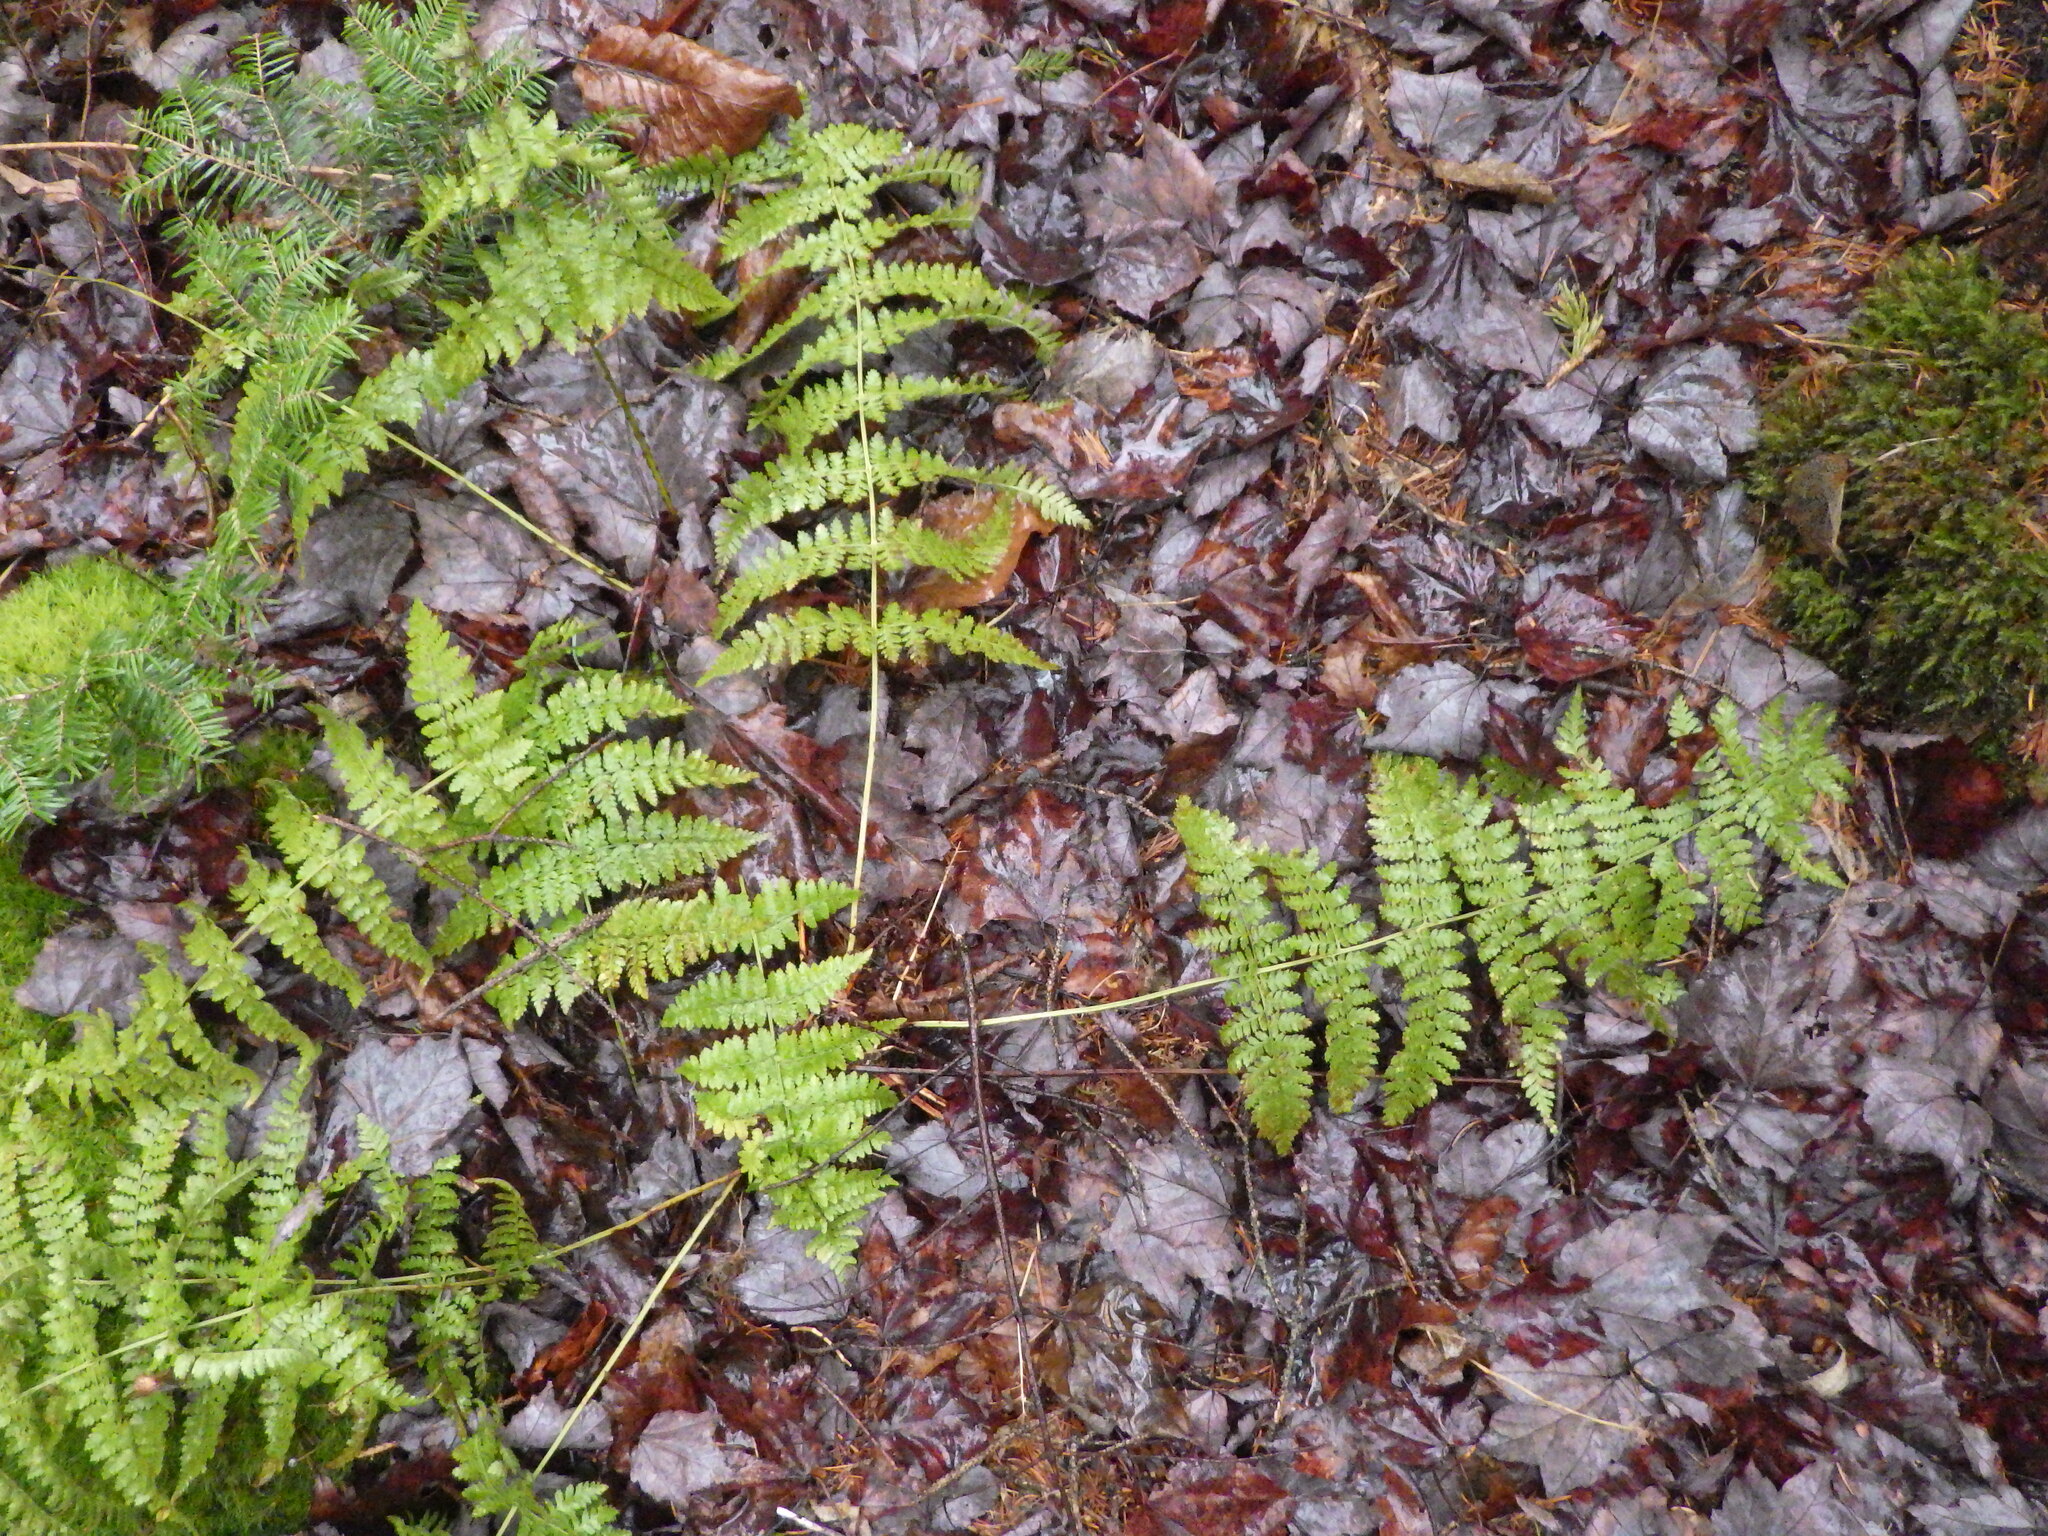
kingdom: Plantae
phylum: Tracheophyta
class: Polypodiopsida
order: Polypodiales
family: Dryopteridaceae
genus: Dryopteris
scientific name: Dryopteris intermedia
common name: Evergreen wood fern
